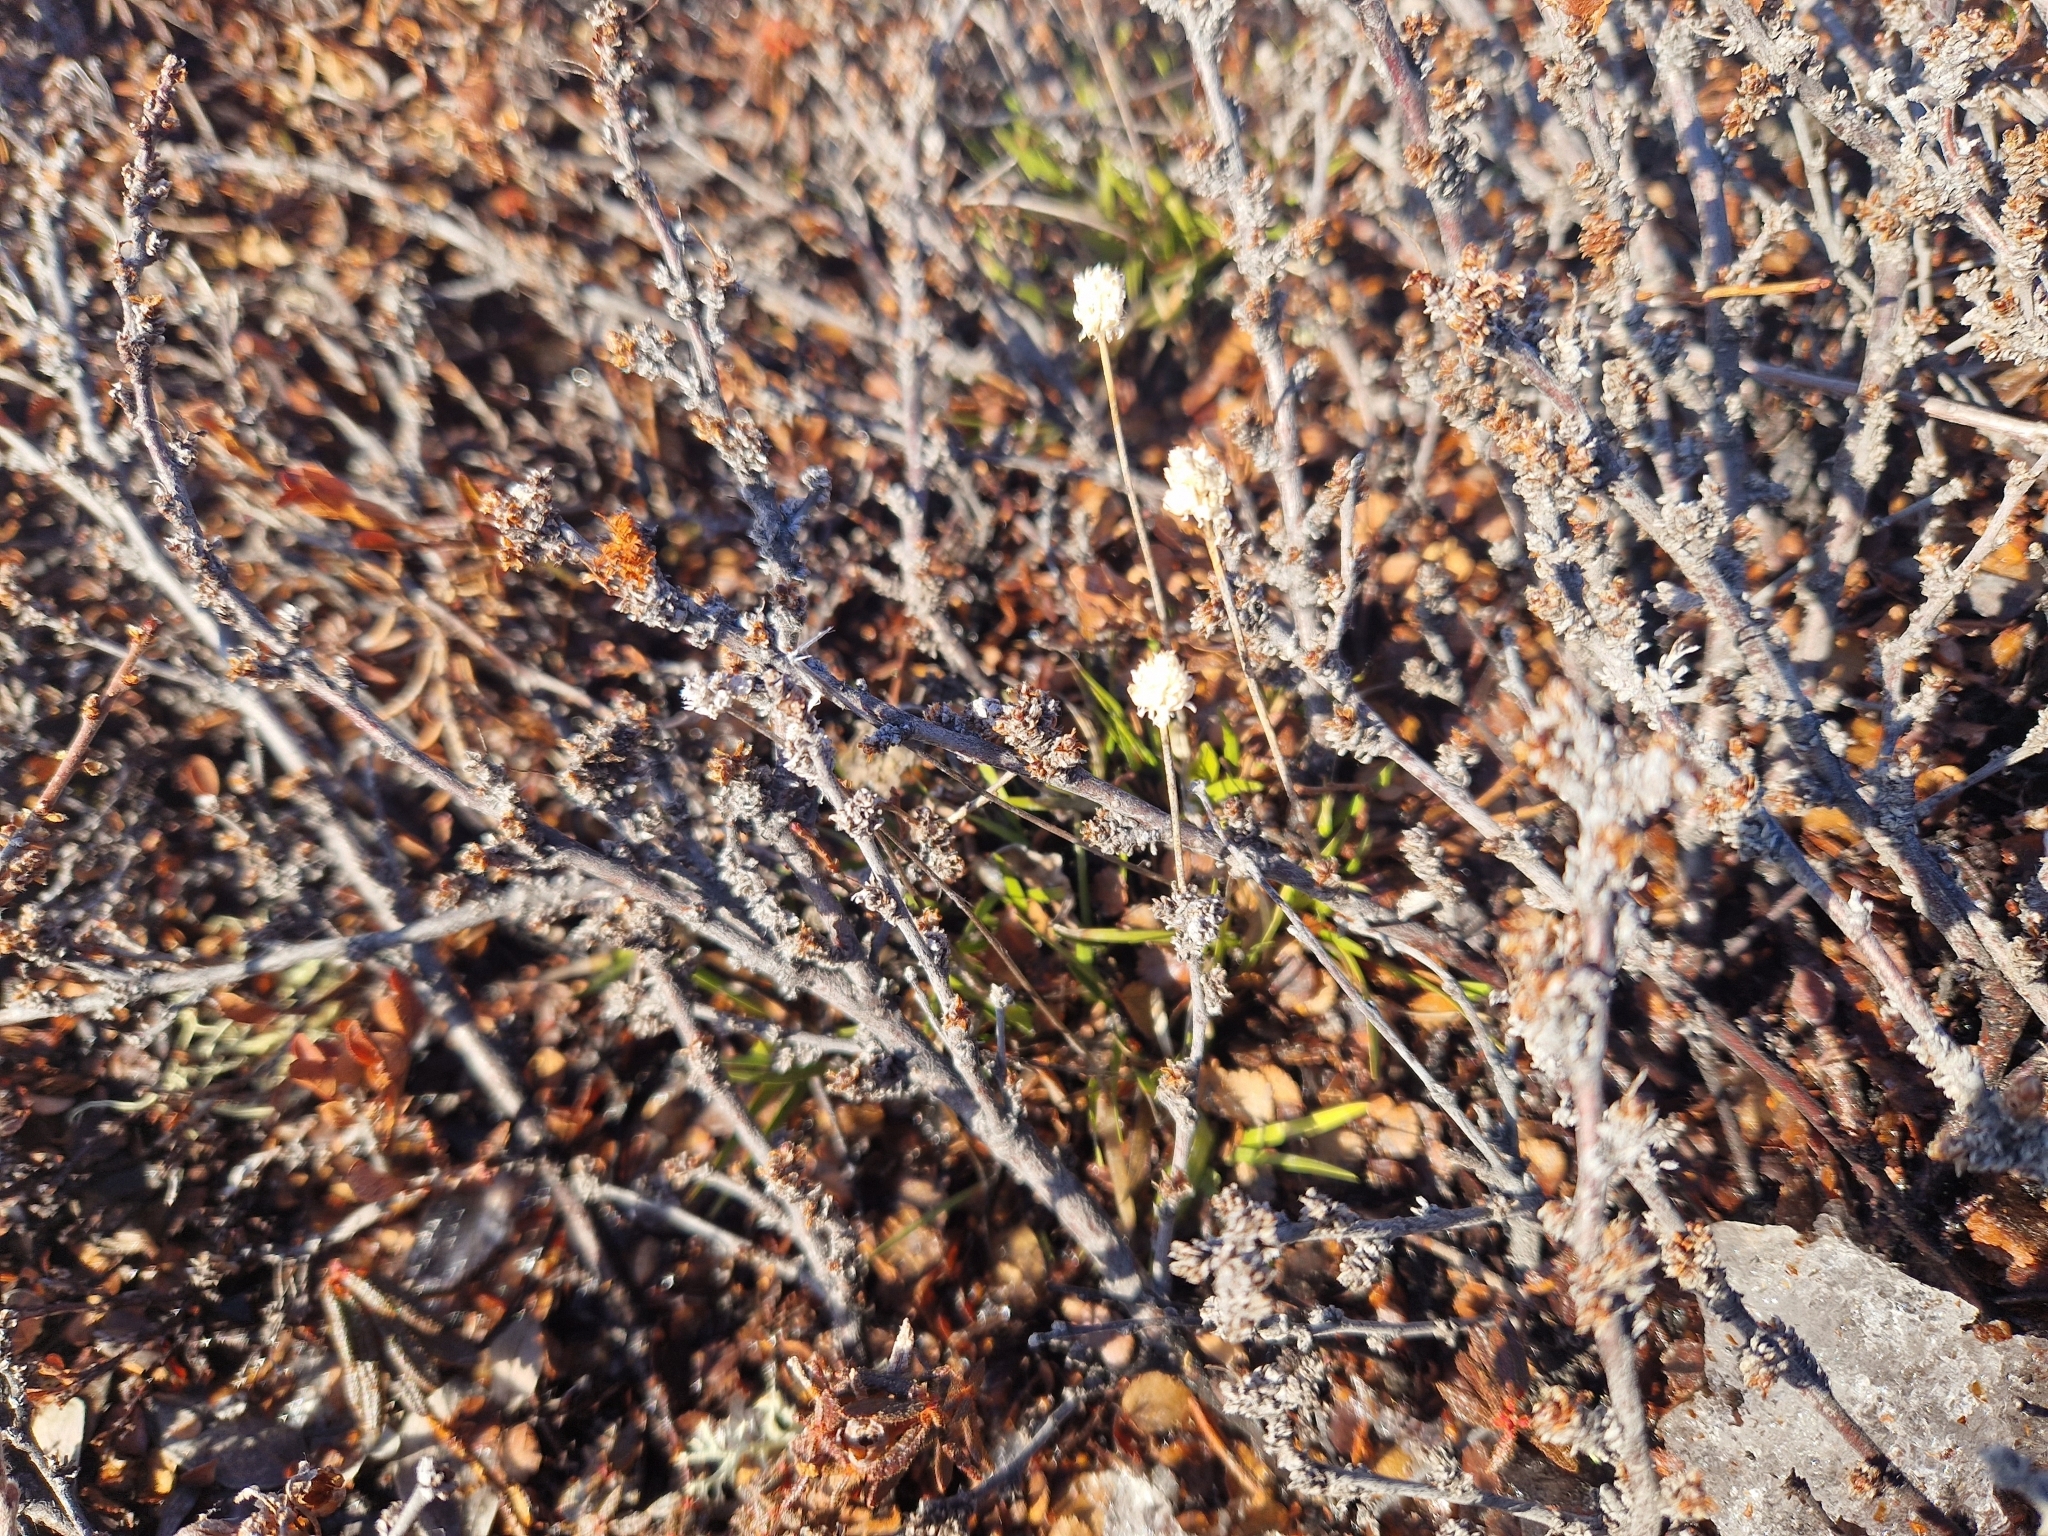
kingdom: Plantae
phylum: Tracheophyta
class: Liliopsida
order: Alismatales
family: Tofieldiaceae
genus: Tofieldia
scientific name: Tofieldia pusilla
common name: Scottish false asphodel
